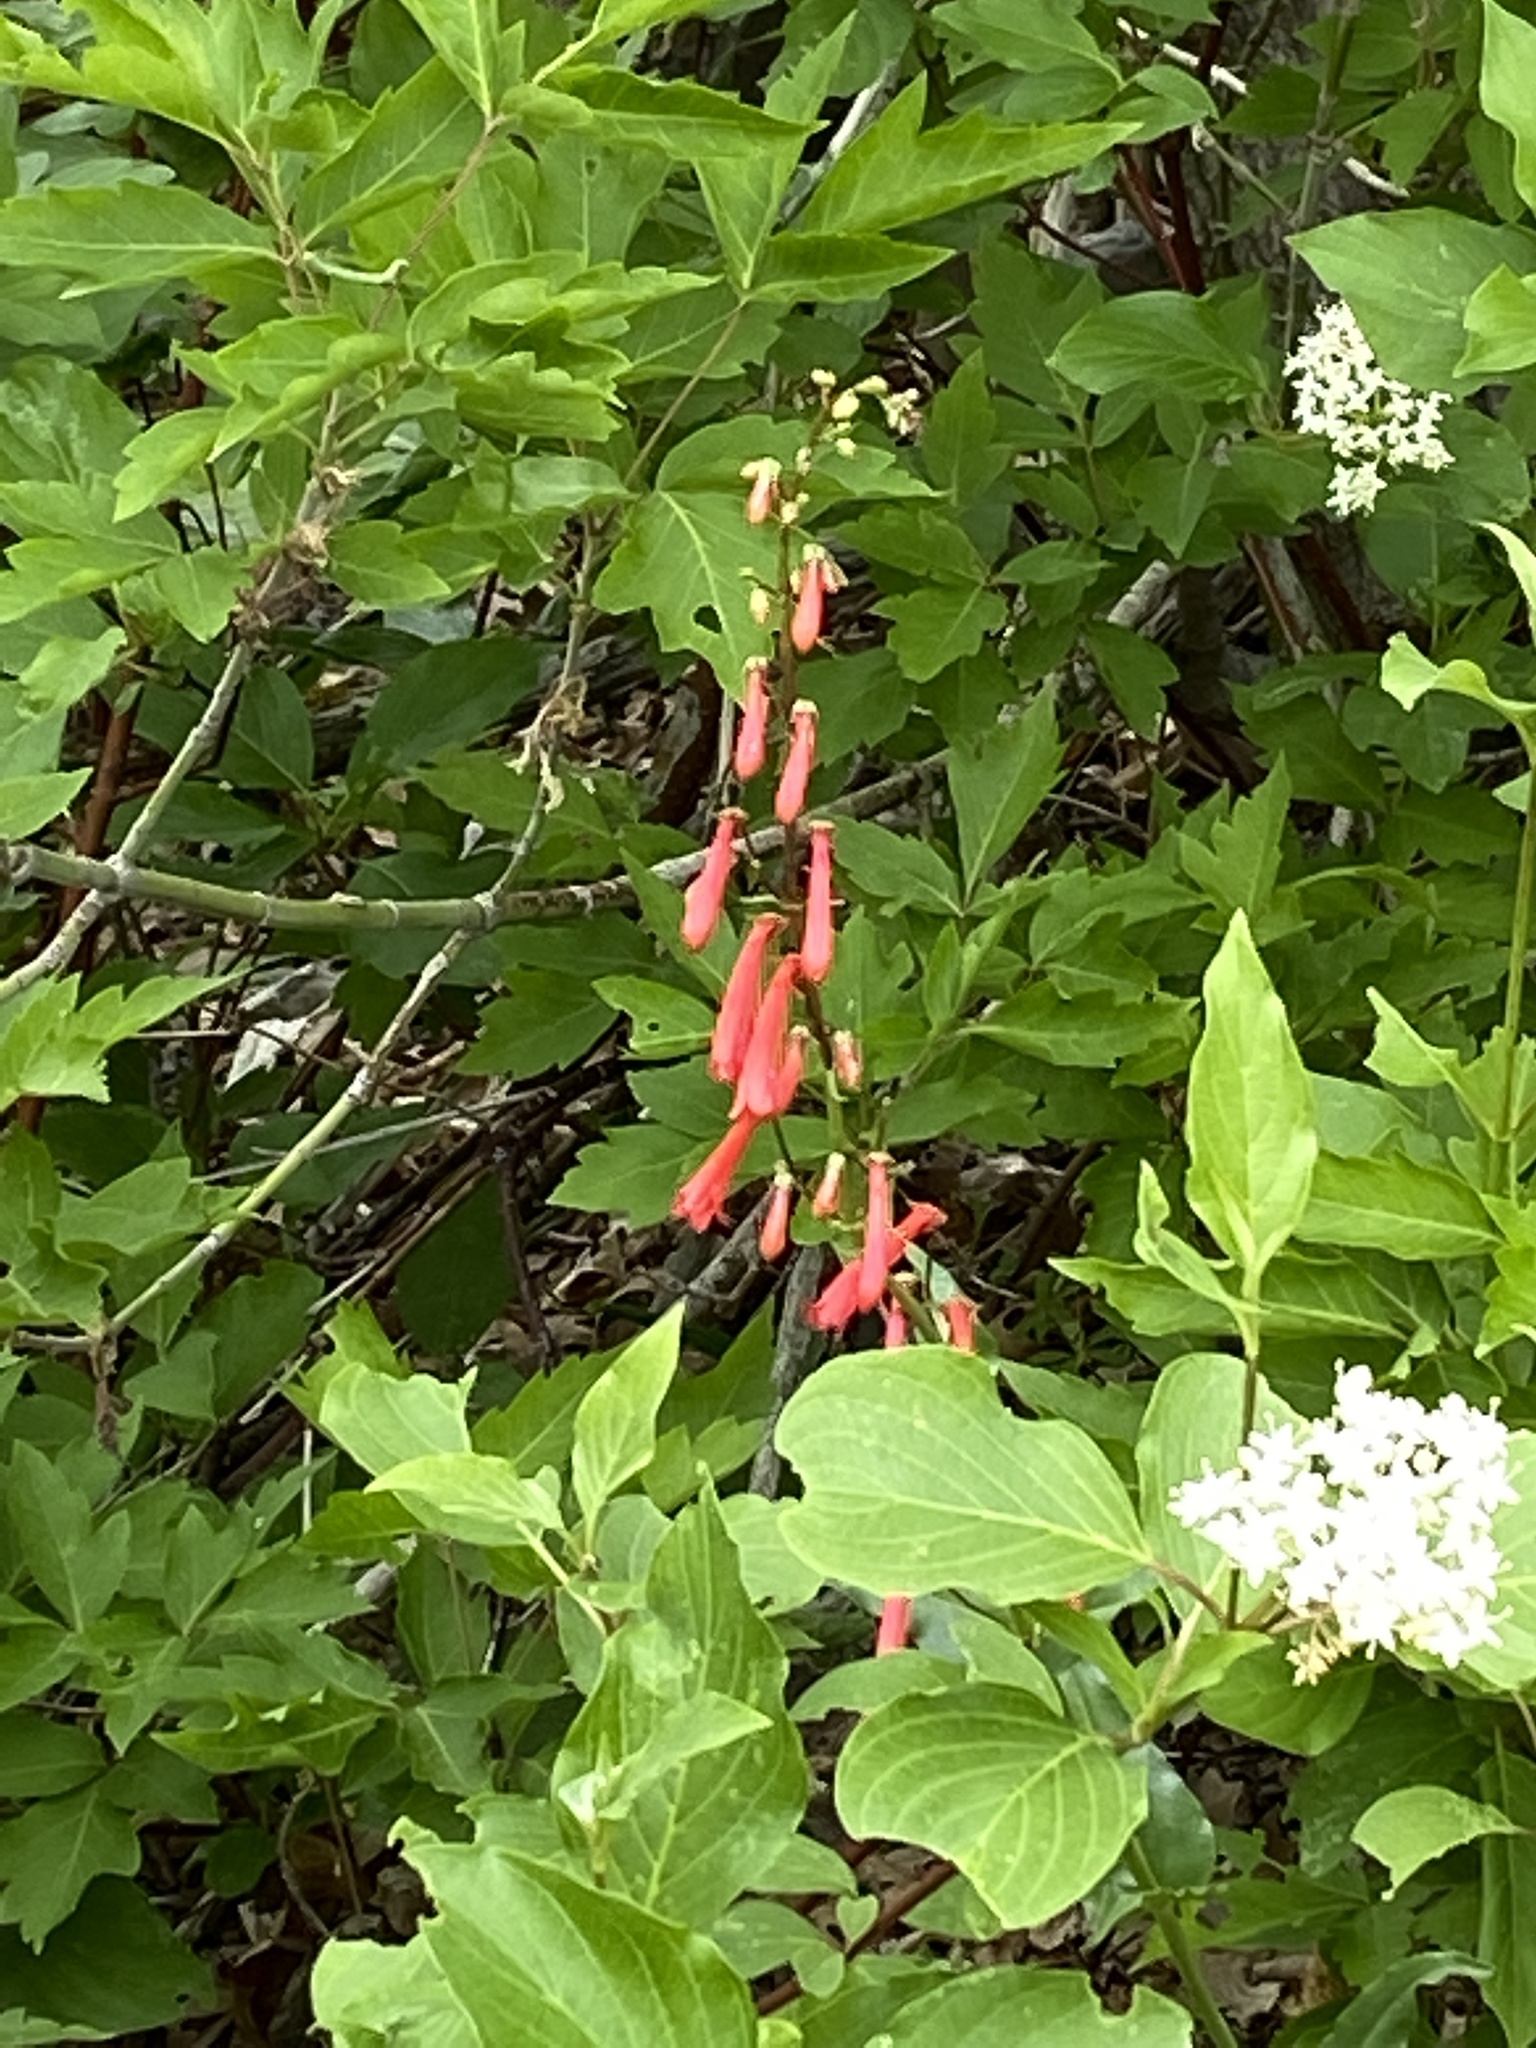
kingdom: Plantae
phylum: Tracheophyta
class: Magnoliopsida
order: Lamiales
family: Plantaginaceae
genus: Penstemon
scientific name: Penstemon eatonii
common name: Eaton's penstemon
